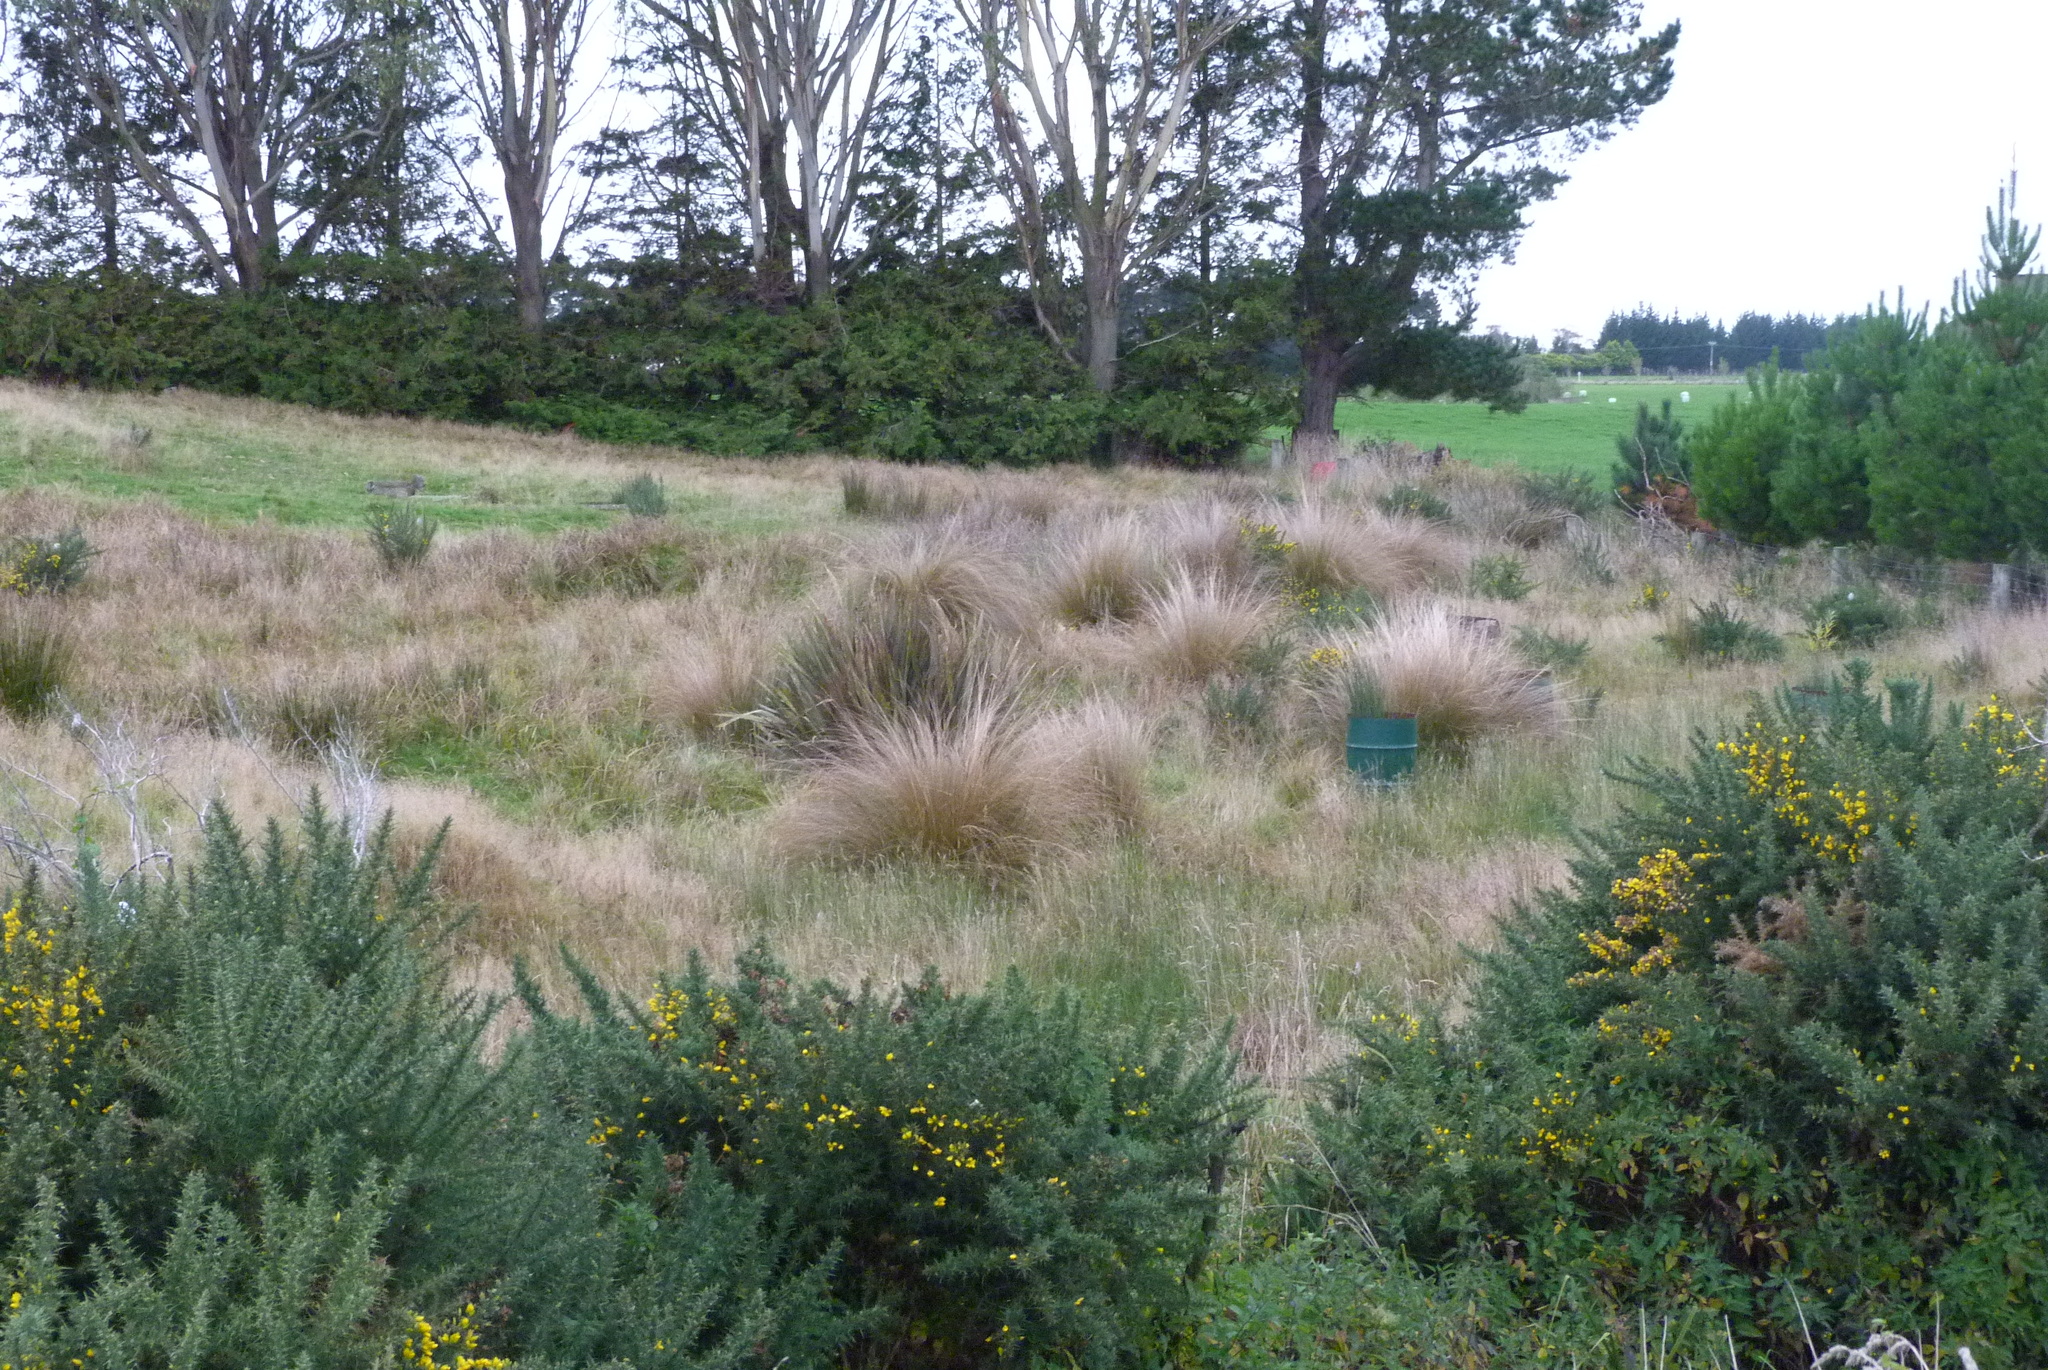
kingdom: Plantae
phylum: Tracheophyta
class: Liliopsida
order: Poales
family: Poaceae
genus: Chionochloa
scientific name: Chionochloa rubra
